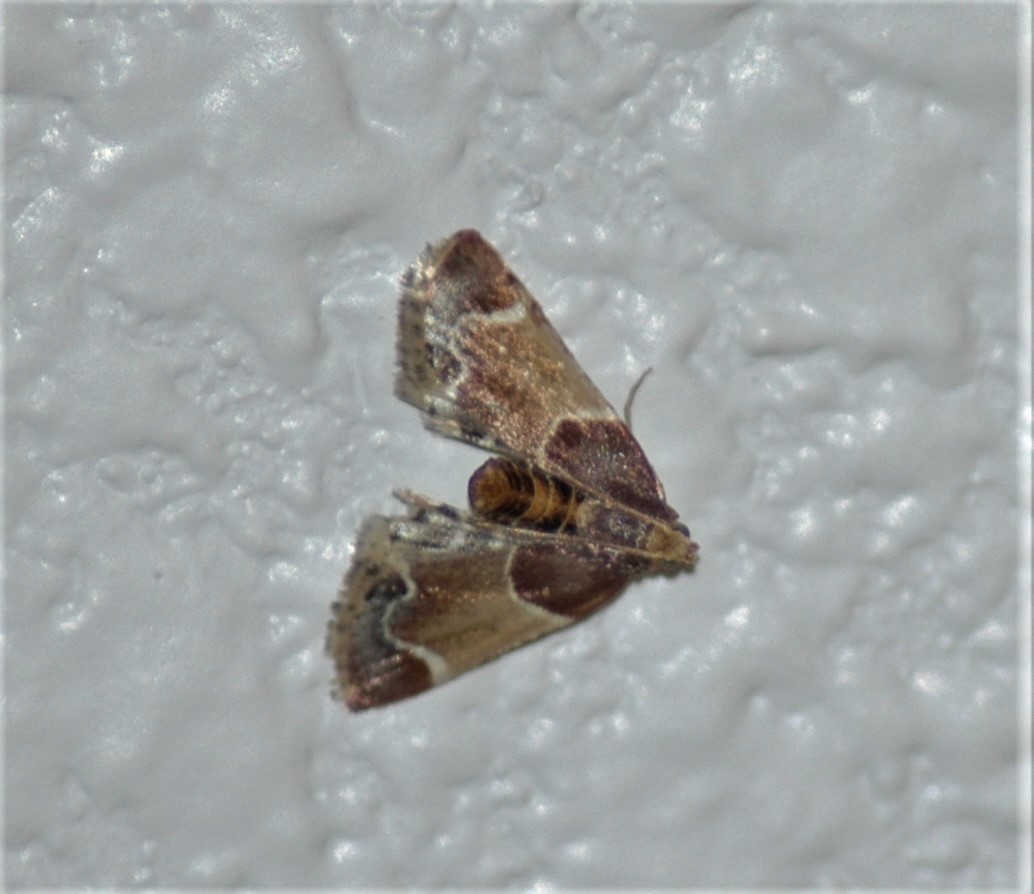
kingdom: Animalia
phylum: Arthropoda
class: Insecta
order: Lepidoptera
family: Pyralidae
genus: Pyralis
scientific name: Pyralis farinalis
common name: Meal moth
